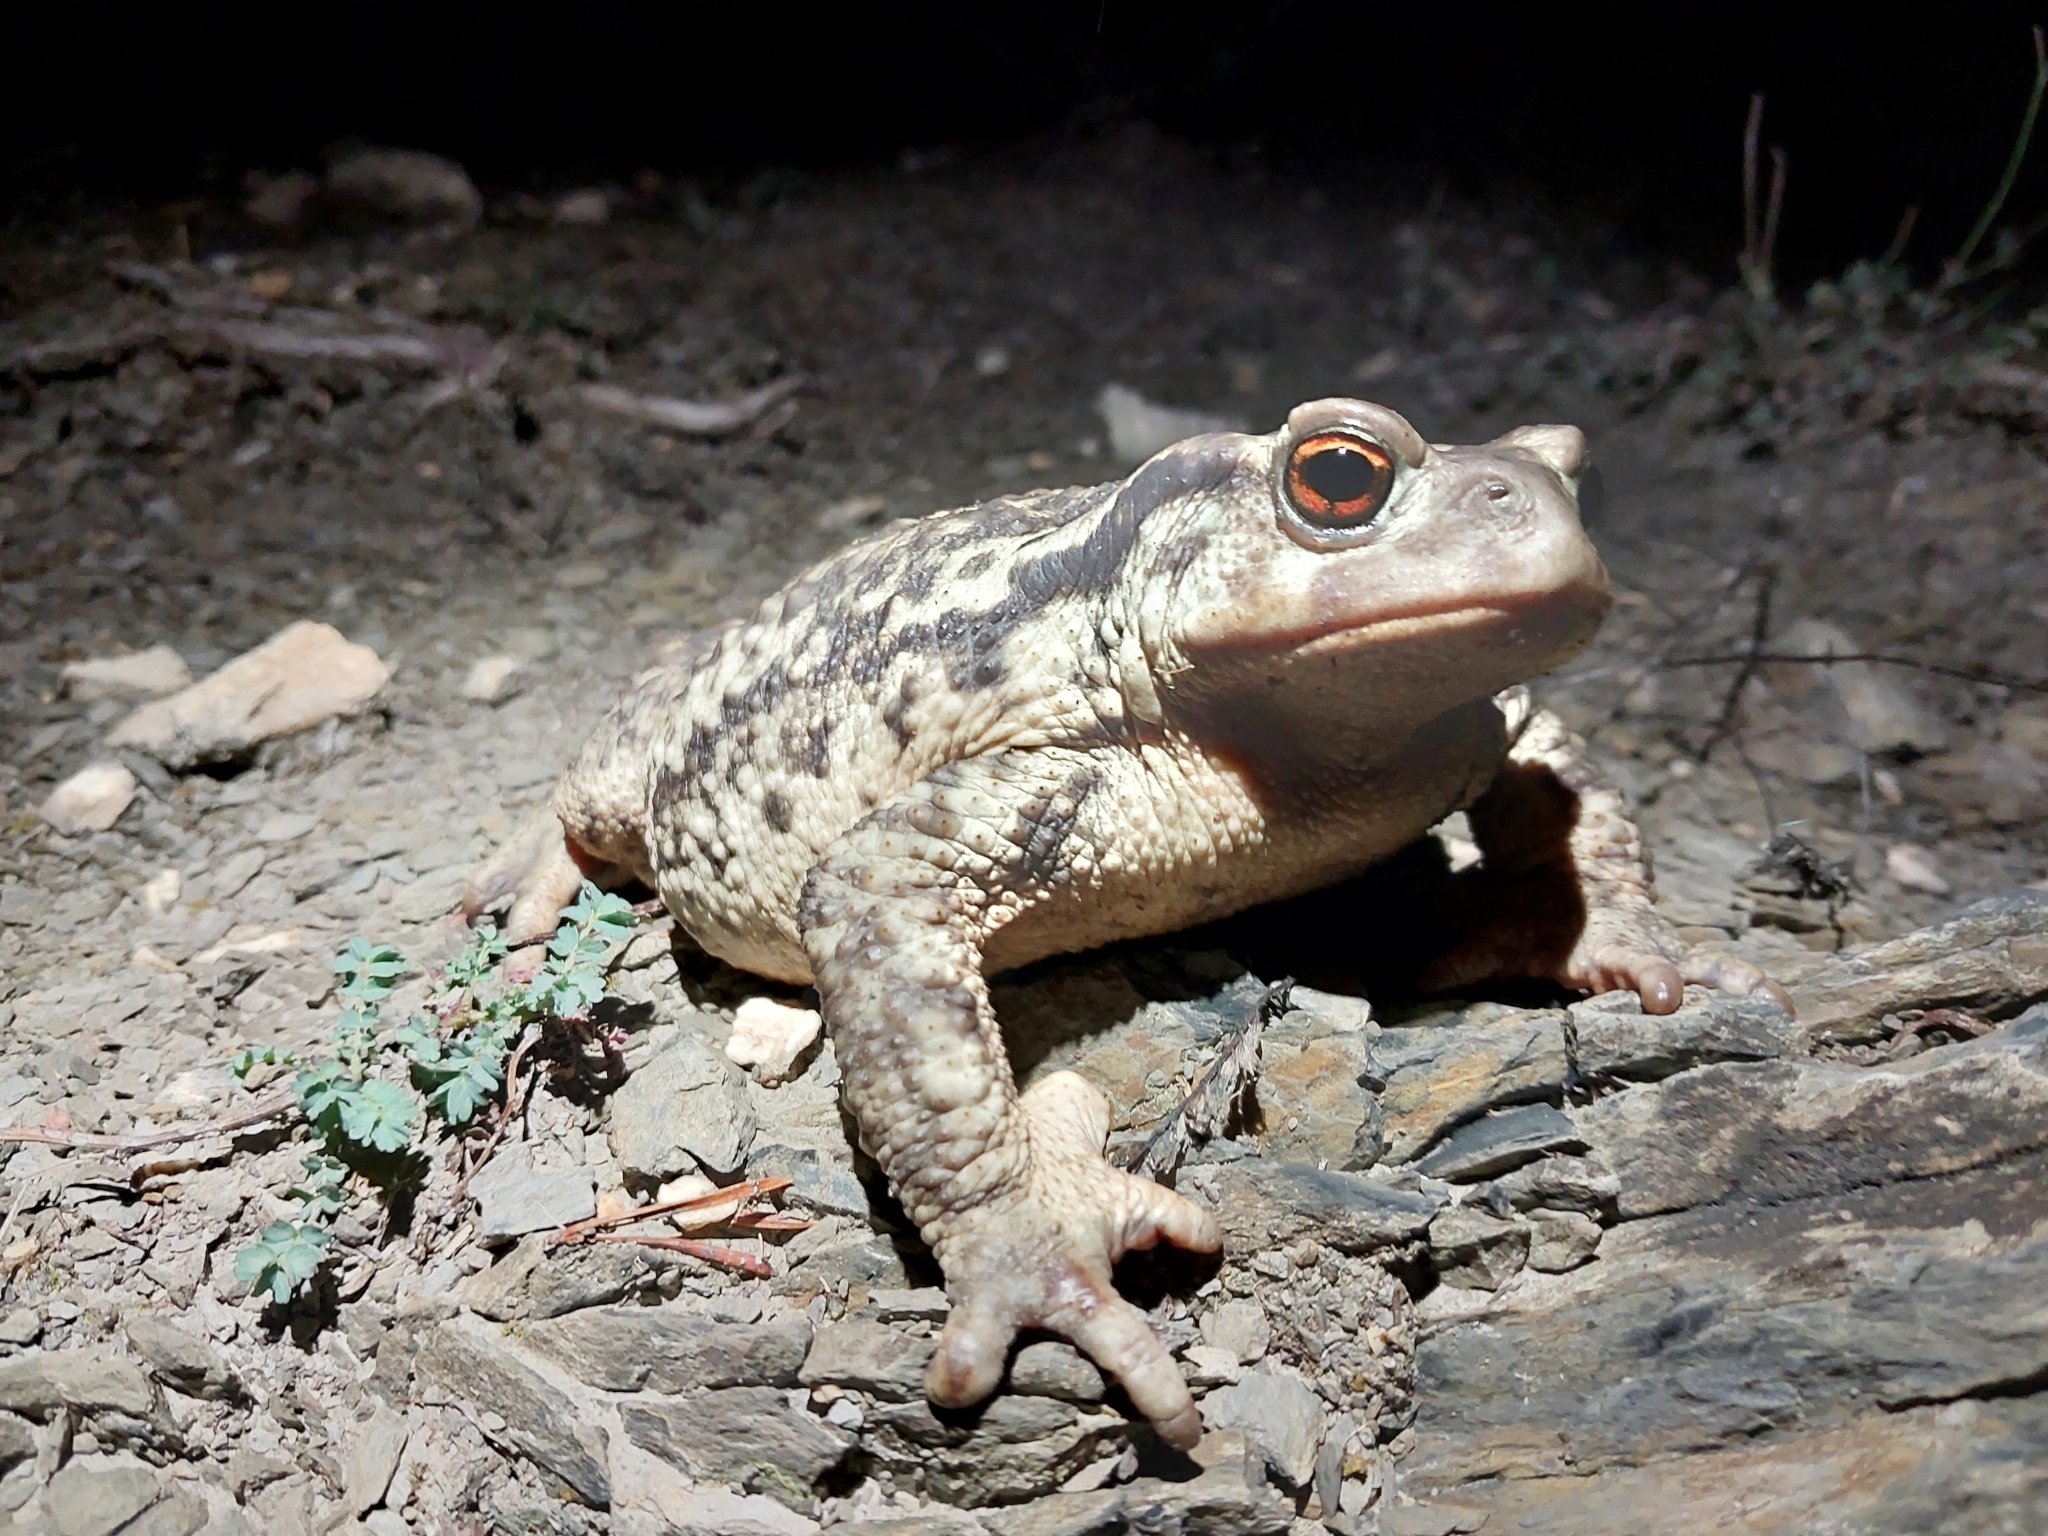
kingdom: Animalia
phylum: Chordata
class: Amphibia
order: Anura
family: Bufonidae
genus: Bufo
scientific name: Bufo spinosus
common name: Western common toad
